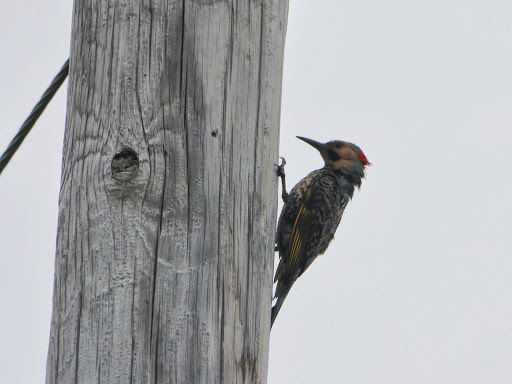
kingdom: Animalia
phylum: Chordata
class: Aves
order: Piciformes
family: Picidae
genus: Colaptes
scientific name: Colaptes auratus
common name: Northern flicker
